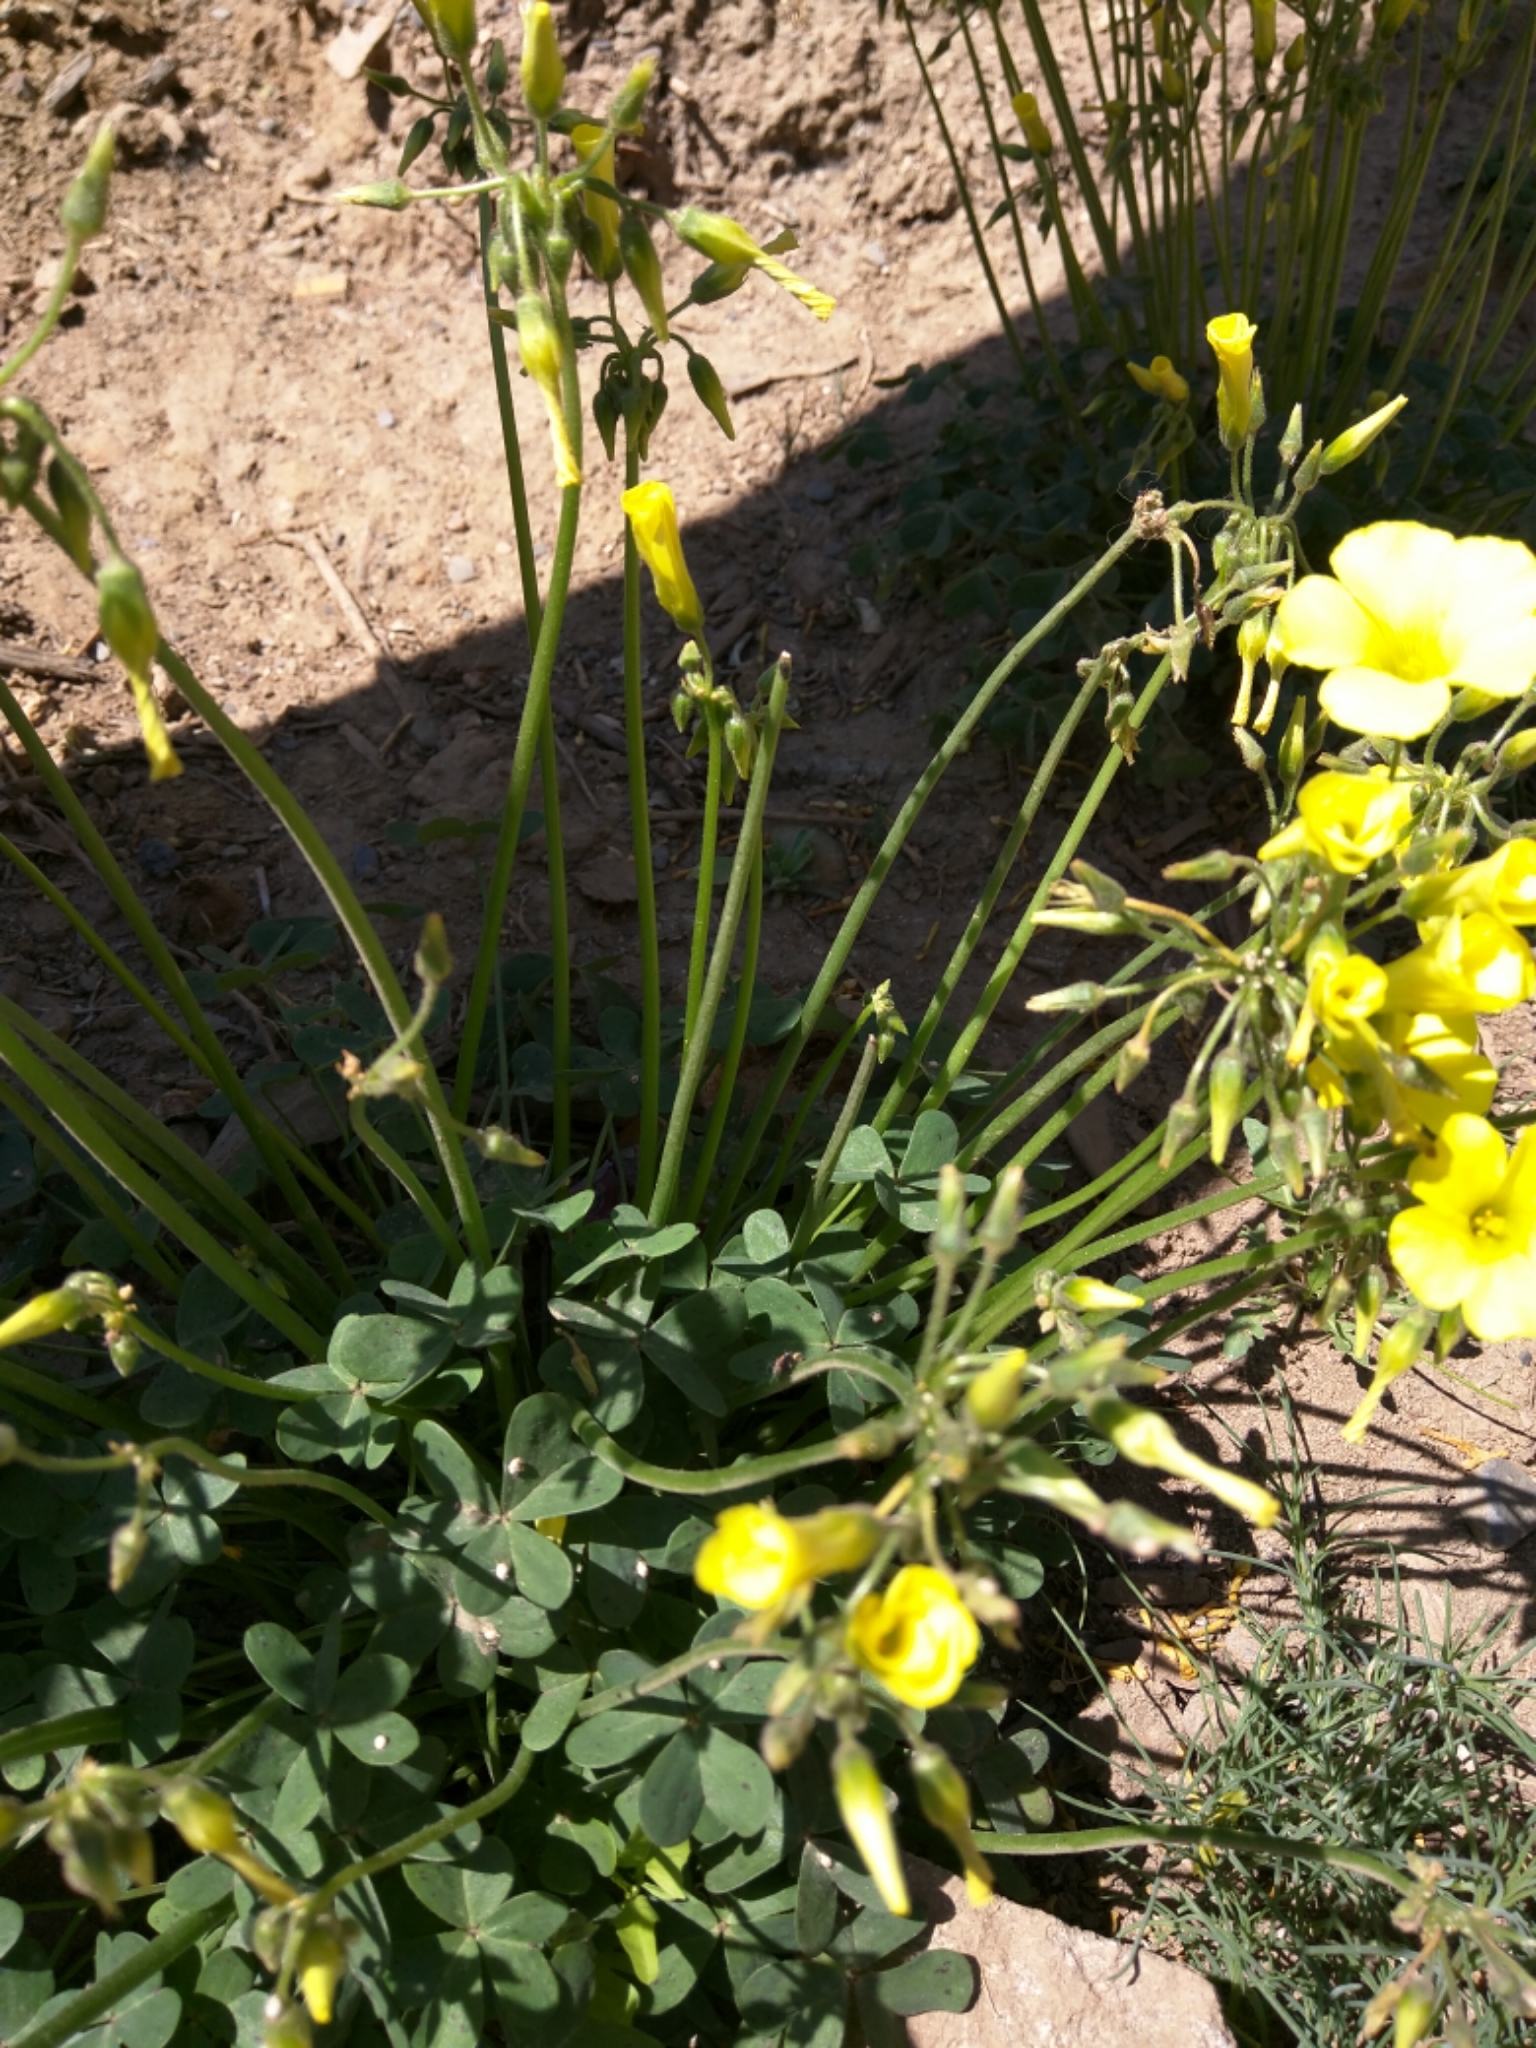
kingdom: Plantae
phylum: Tracheophyta
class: Magnoliopsida
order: Oxalidales
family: Oxalidaceae
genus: Oxalis
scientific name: Oxalis pes-caprae
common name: Bermuda-buttercup
